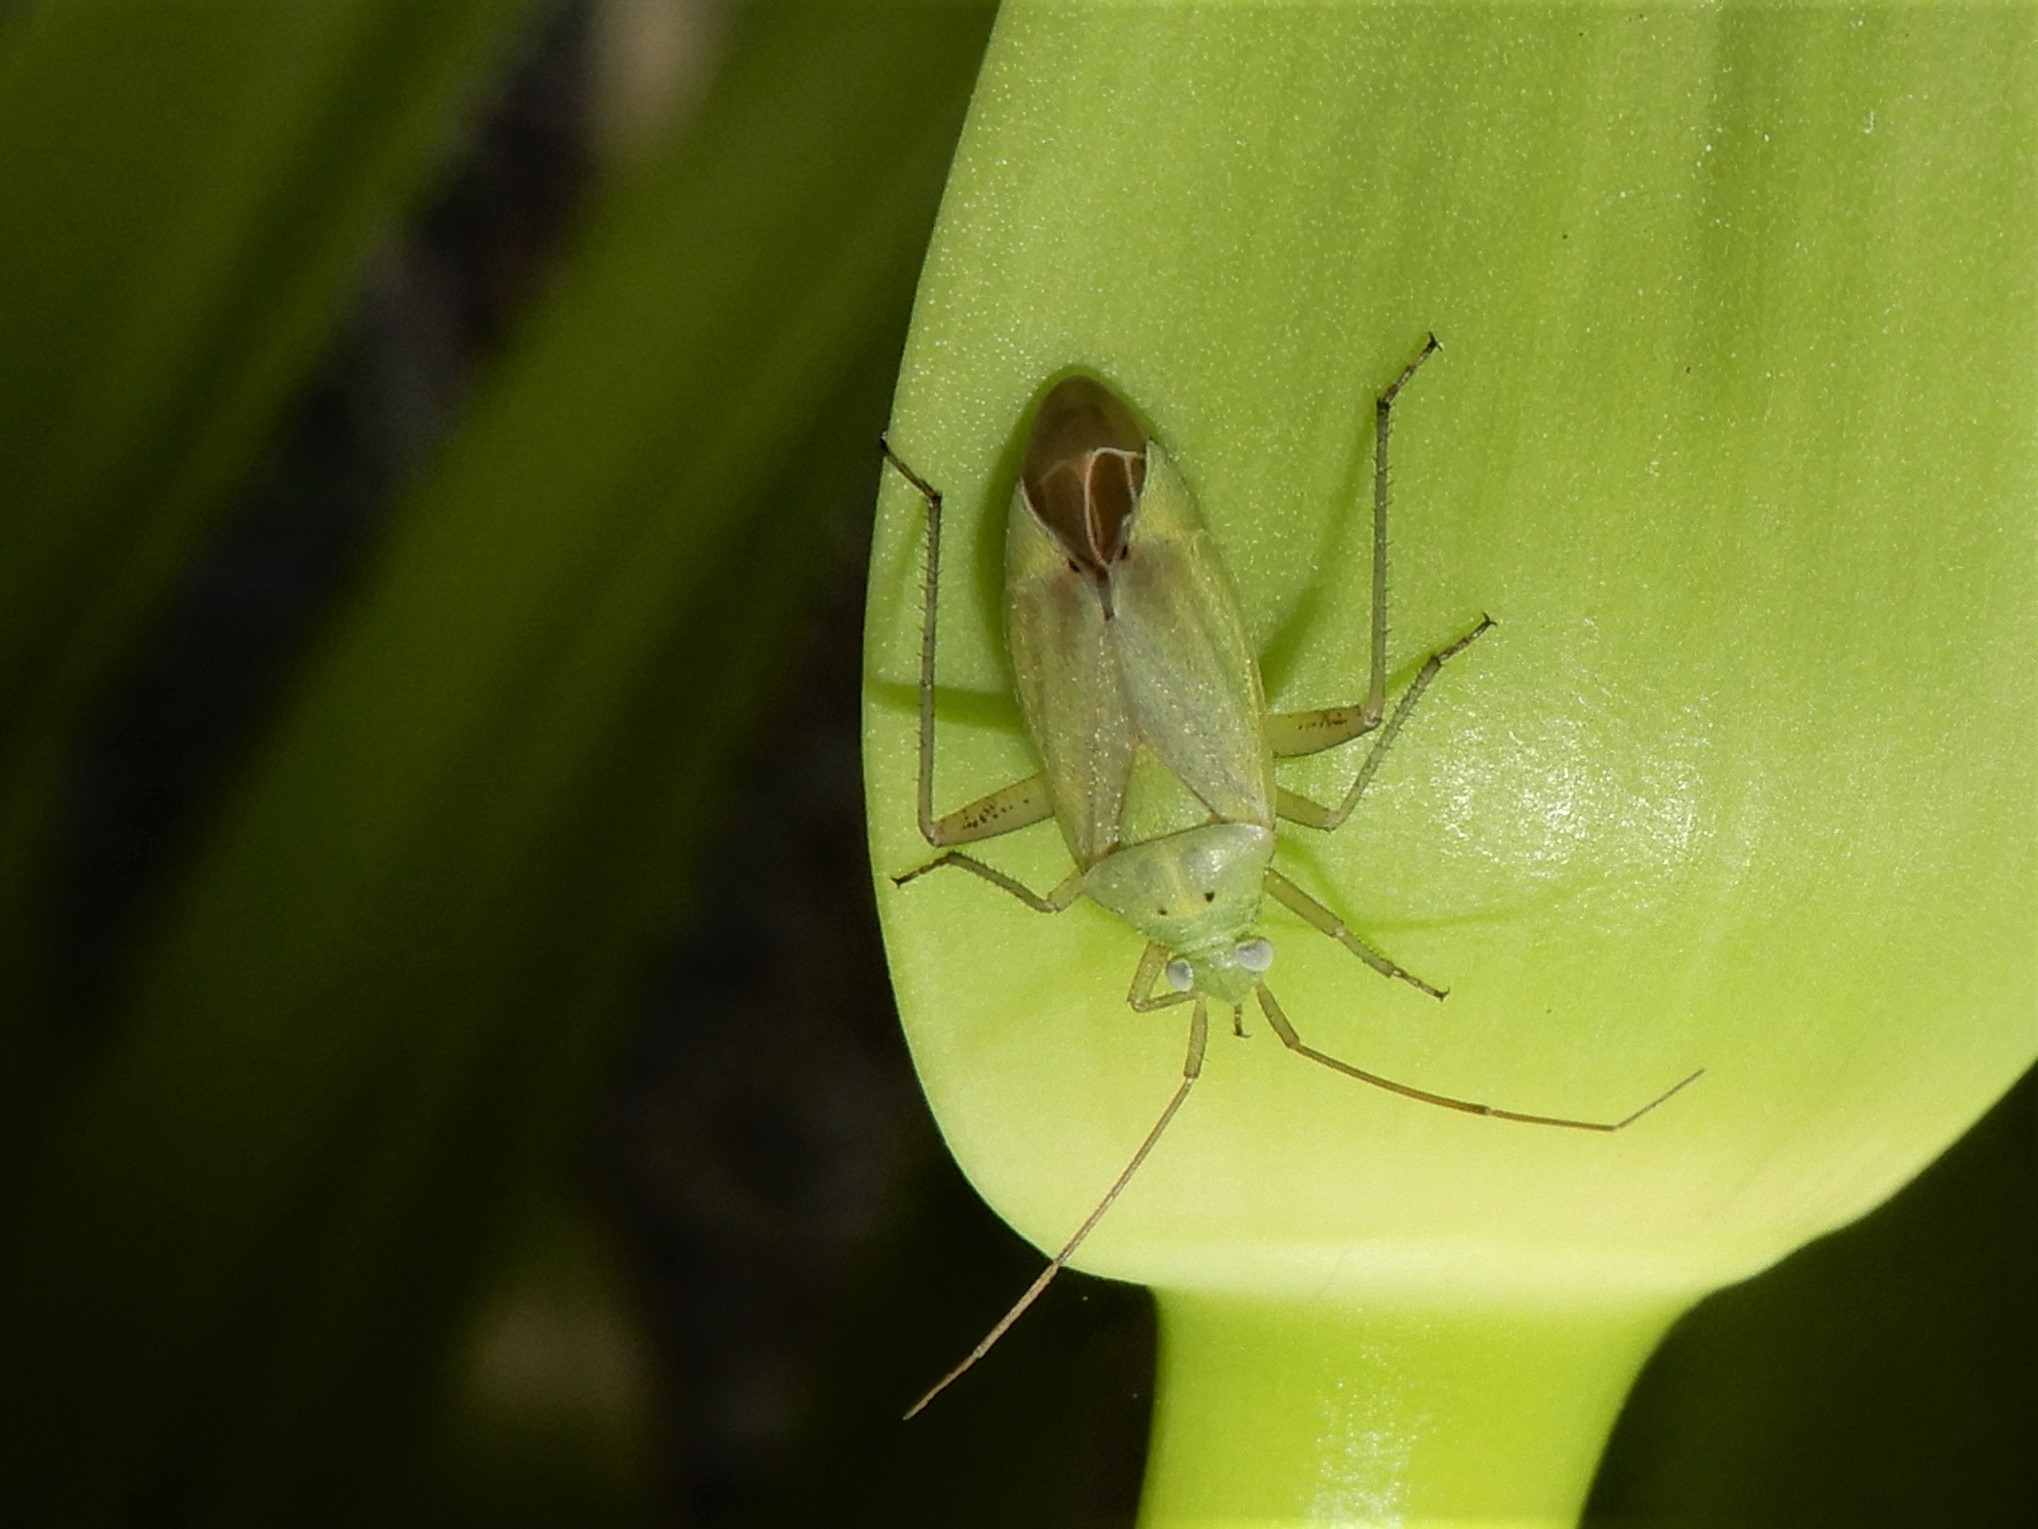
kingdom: Animalia
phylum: Arthropoda
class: Insecta
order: Hemiptera
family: Miridae
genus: Closterotomus
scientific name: Closterotomus norvegicus
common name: Plant bug
